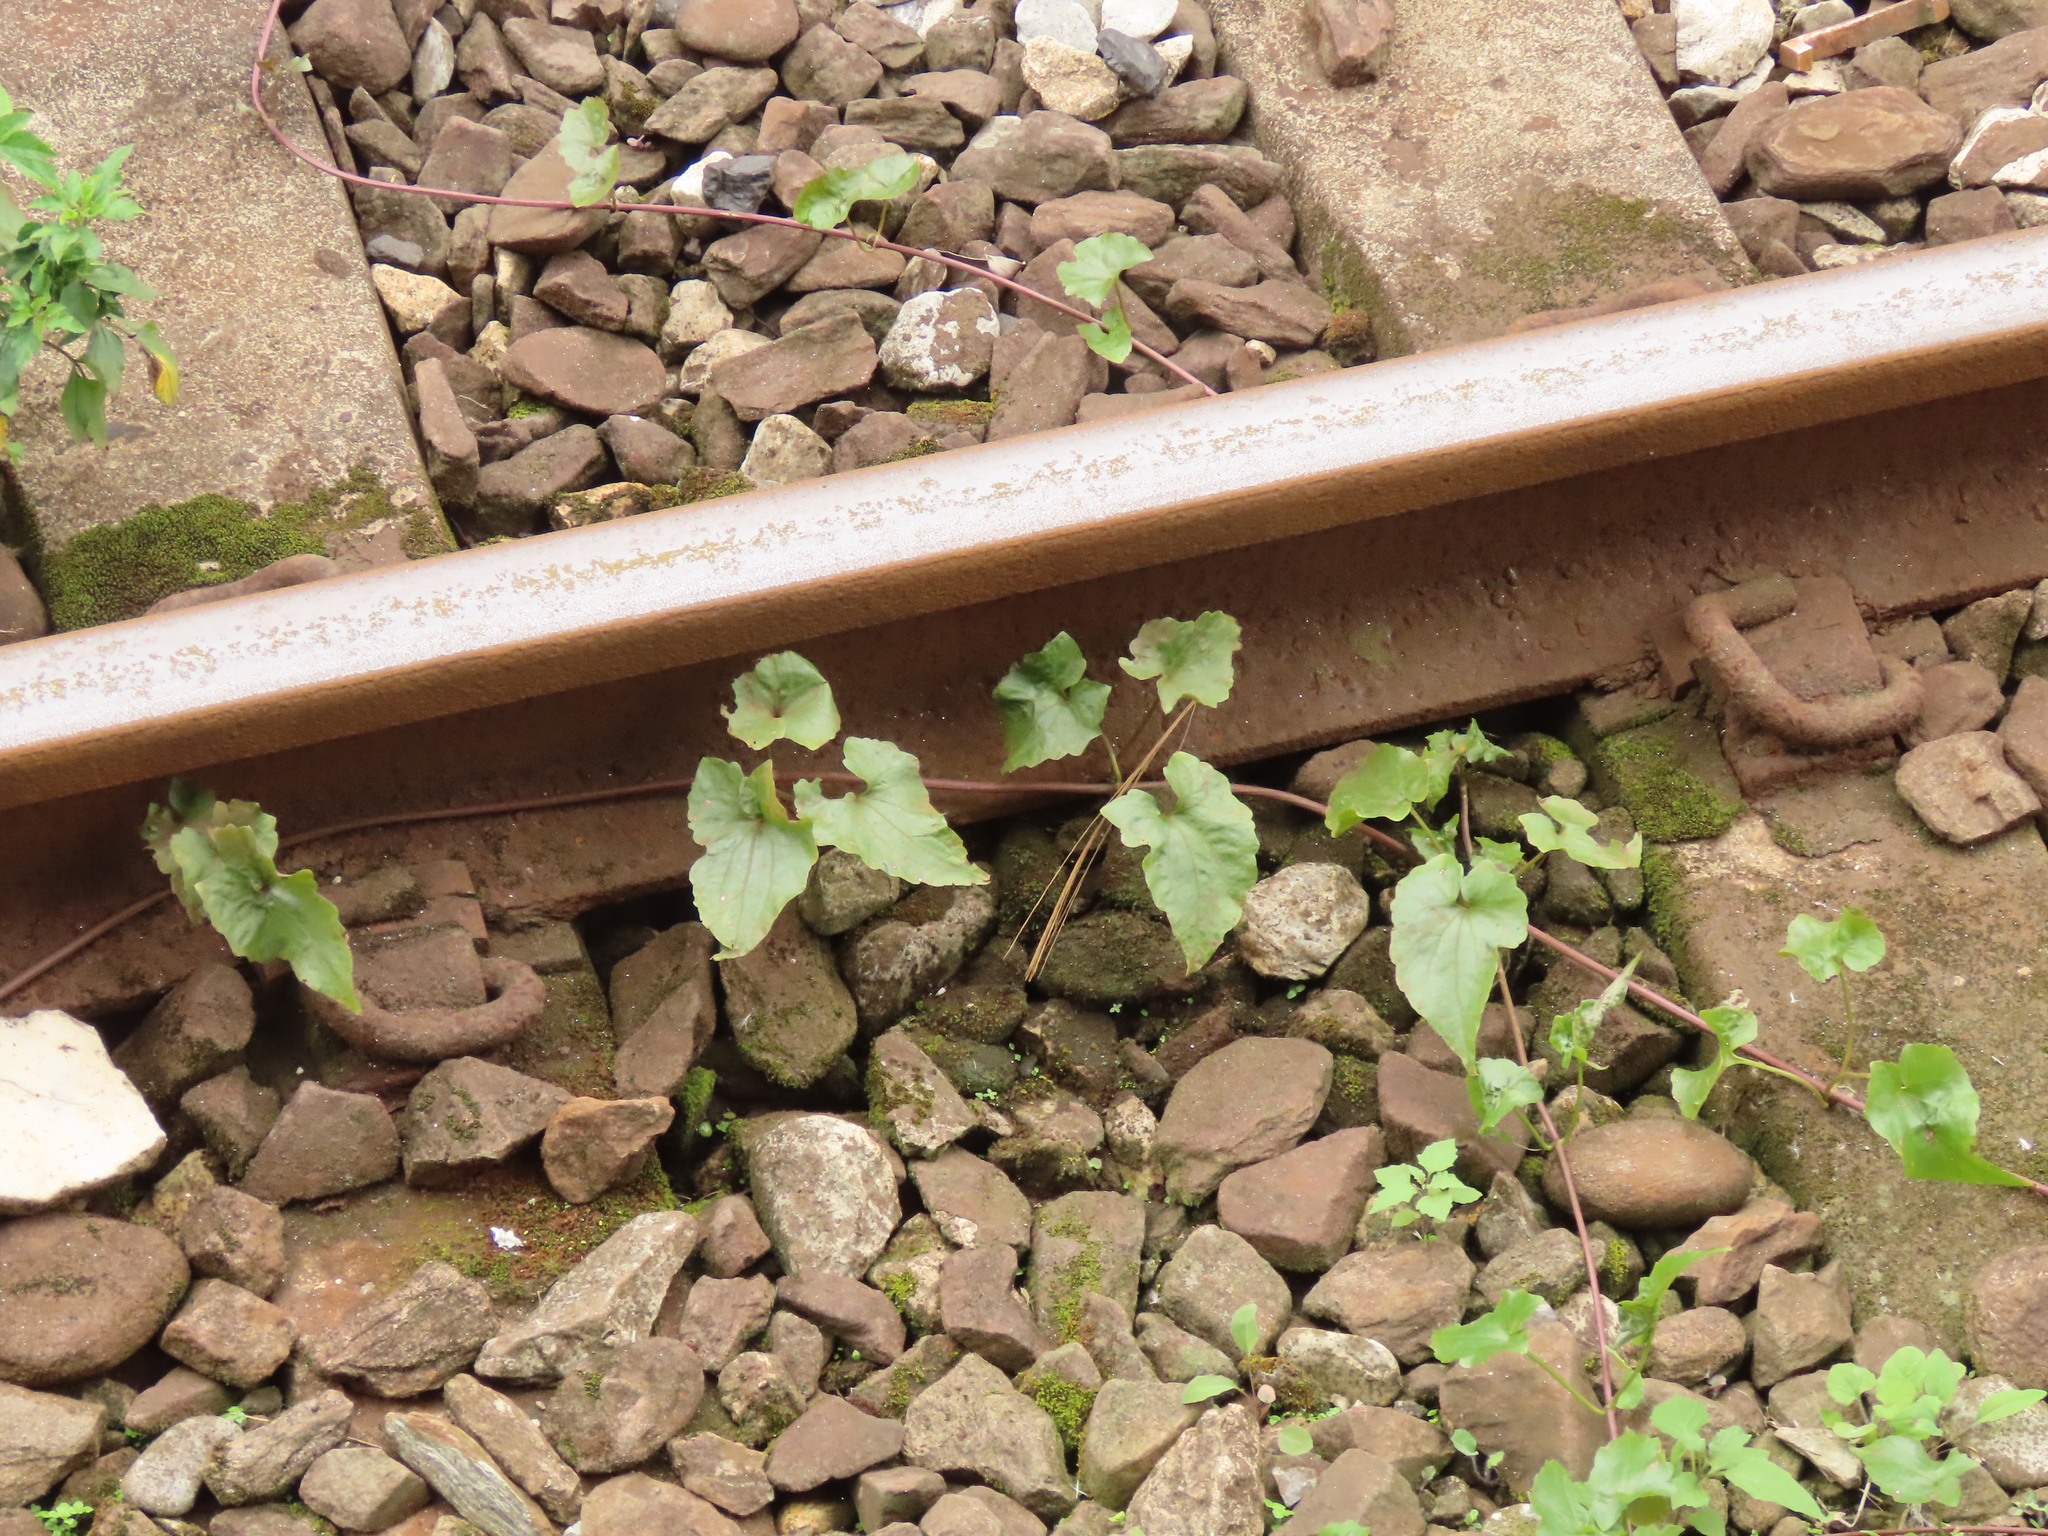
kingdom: Plantae
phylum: Tracheophyta
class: Magnoliopsida
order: Asterales
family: Asteraceae
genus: Mikania
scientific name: Mikania micrantha
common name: Mile-a-minute
